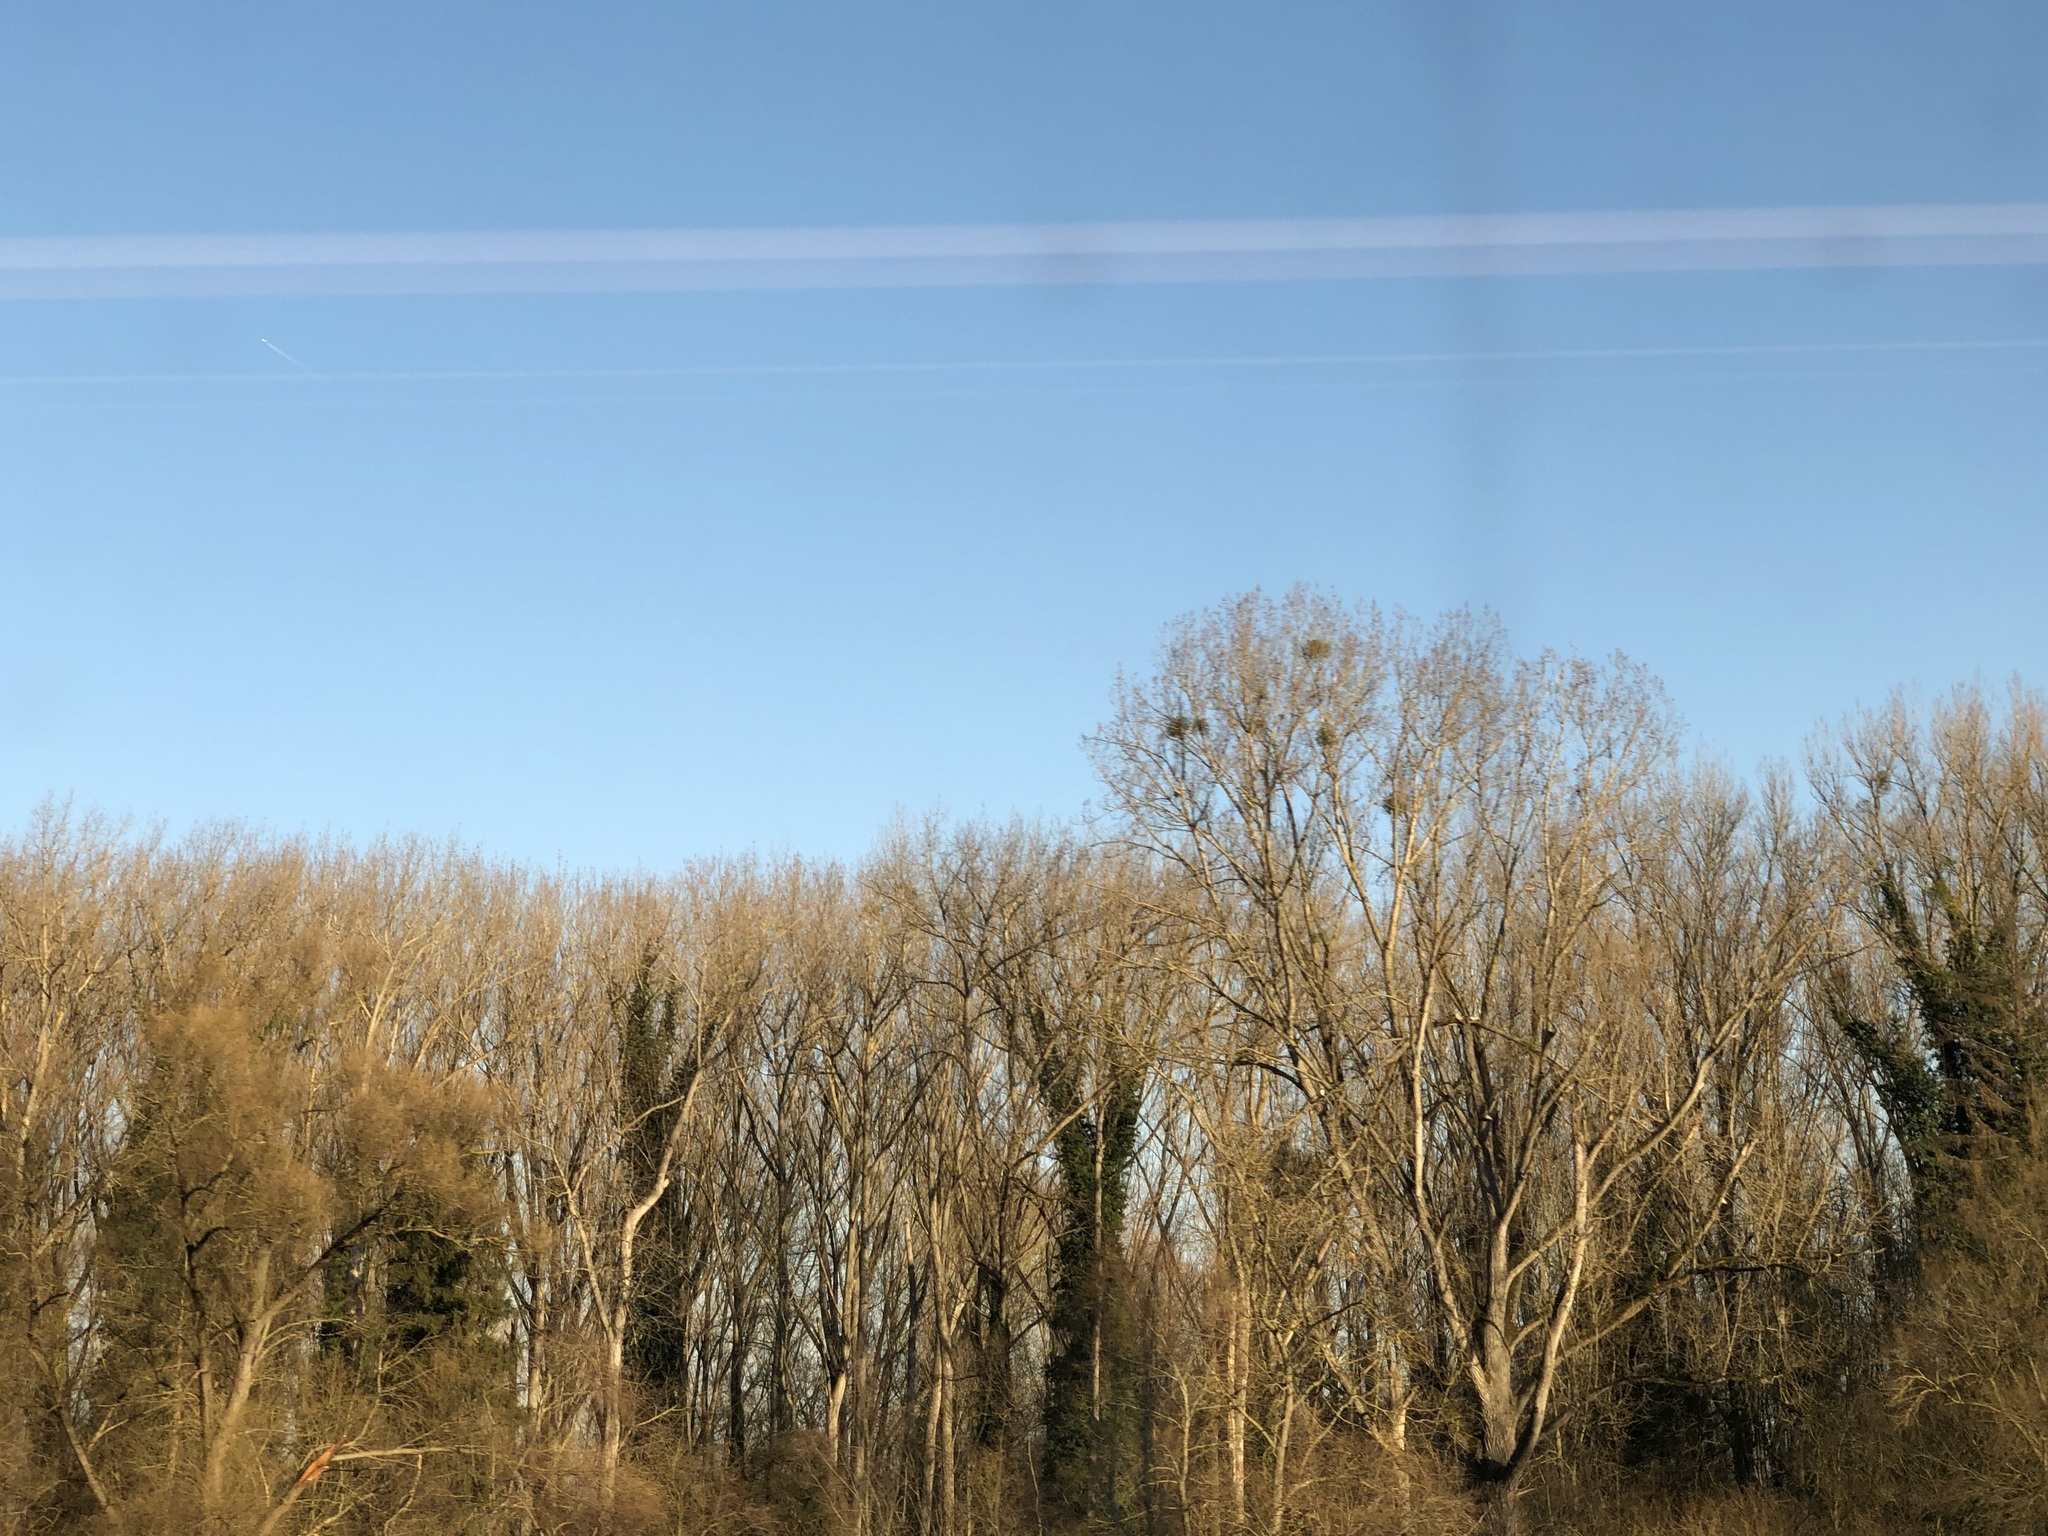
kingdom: Plantae
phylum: Tracheophyta
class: Magnoliopsida
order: Santalales
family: Viscaceae
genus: Viscum
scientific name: Viscum album
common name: Mistletoe
